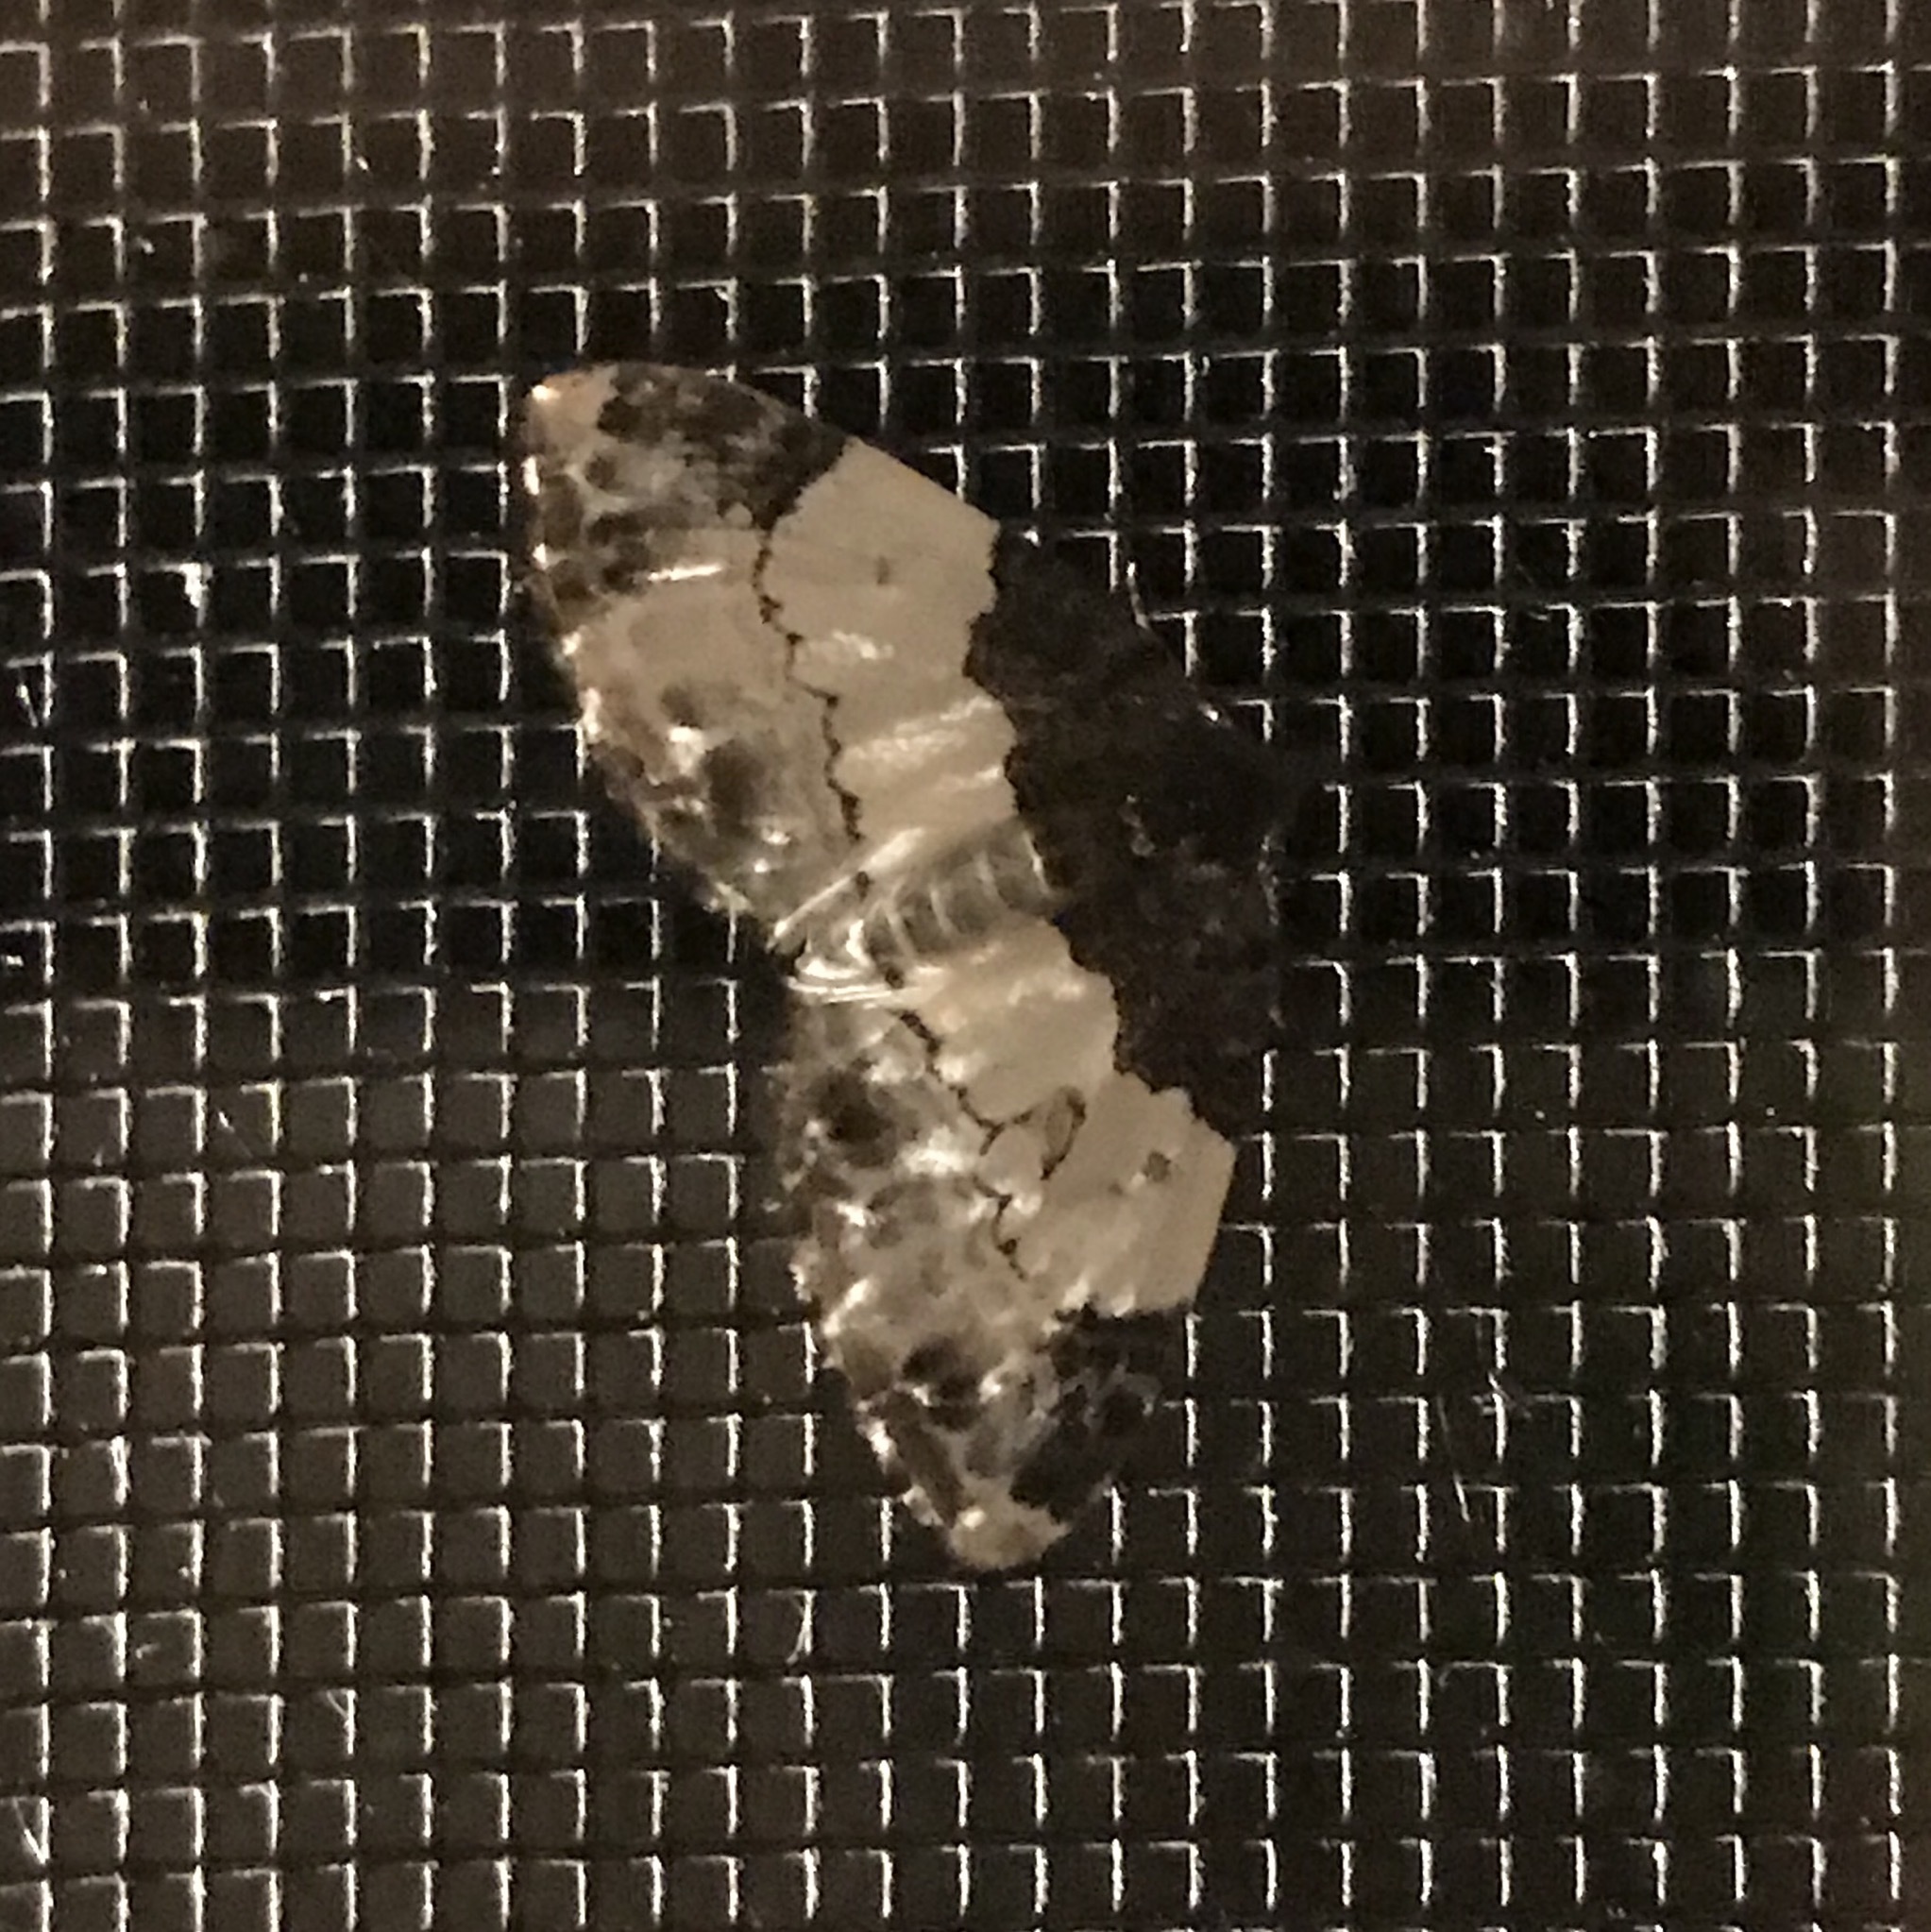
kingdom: Animalia
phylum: Arthropoda
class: Insecta
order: Lepidoptera
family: Geometridae
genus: Mesoleuca
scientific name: Mesoleuca ruficillata
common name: White-ribboned carpet moth
